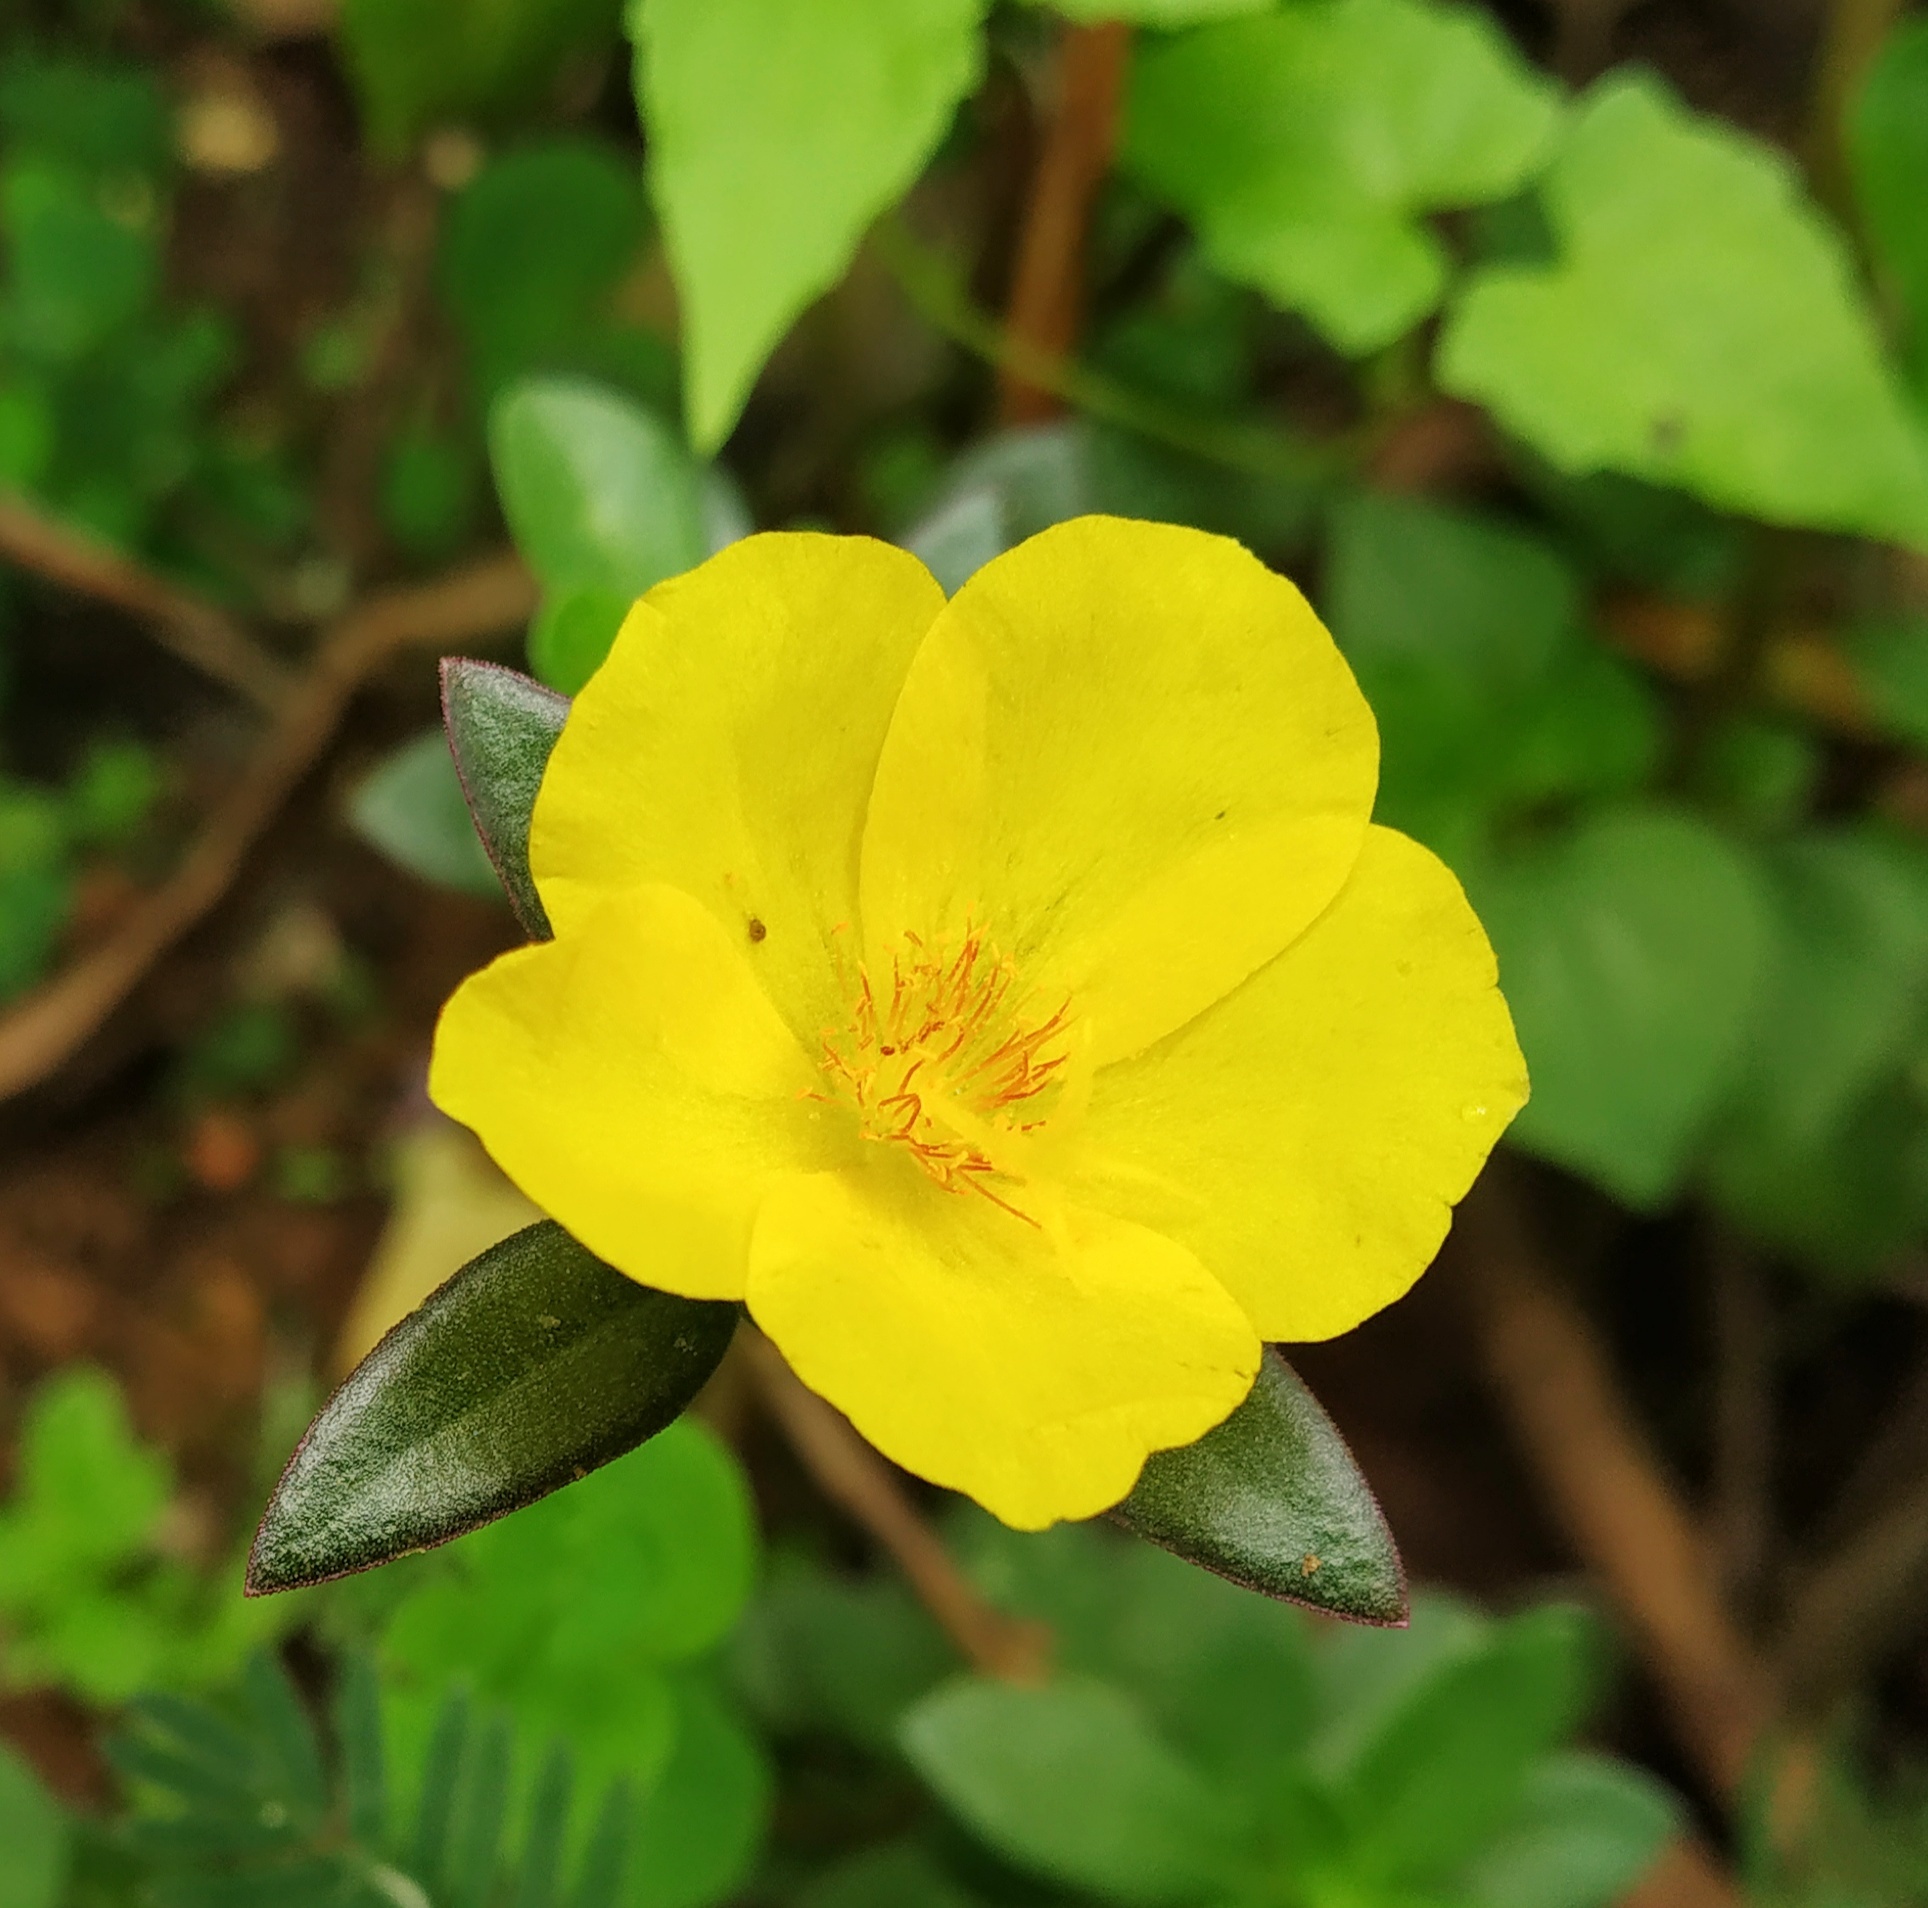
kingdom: Plantae
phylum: Tracheophyta
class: Magnoliopsida
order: Caryophyllales
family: Portulacaceae
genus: Portulaca
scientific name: Portulaca umbraticola
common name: Wingpod purslane
